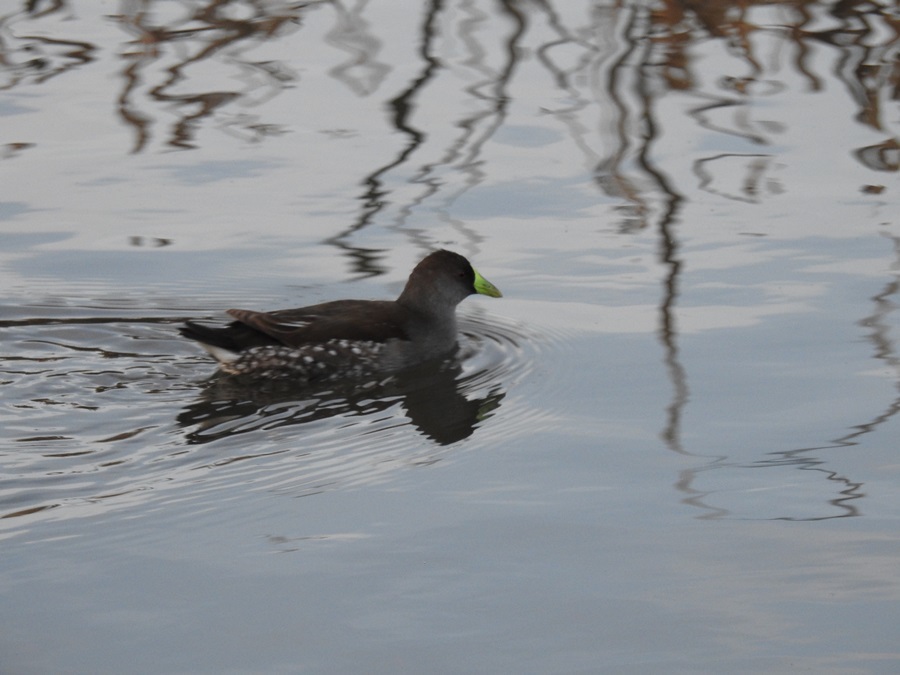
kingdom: Animalia
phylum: Chordata
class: Aves
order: Gruiformes
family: Rallidae
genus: Gallinula
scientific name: Gallinula melanops
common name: Spot-flanked gallinule
